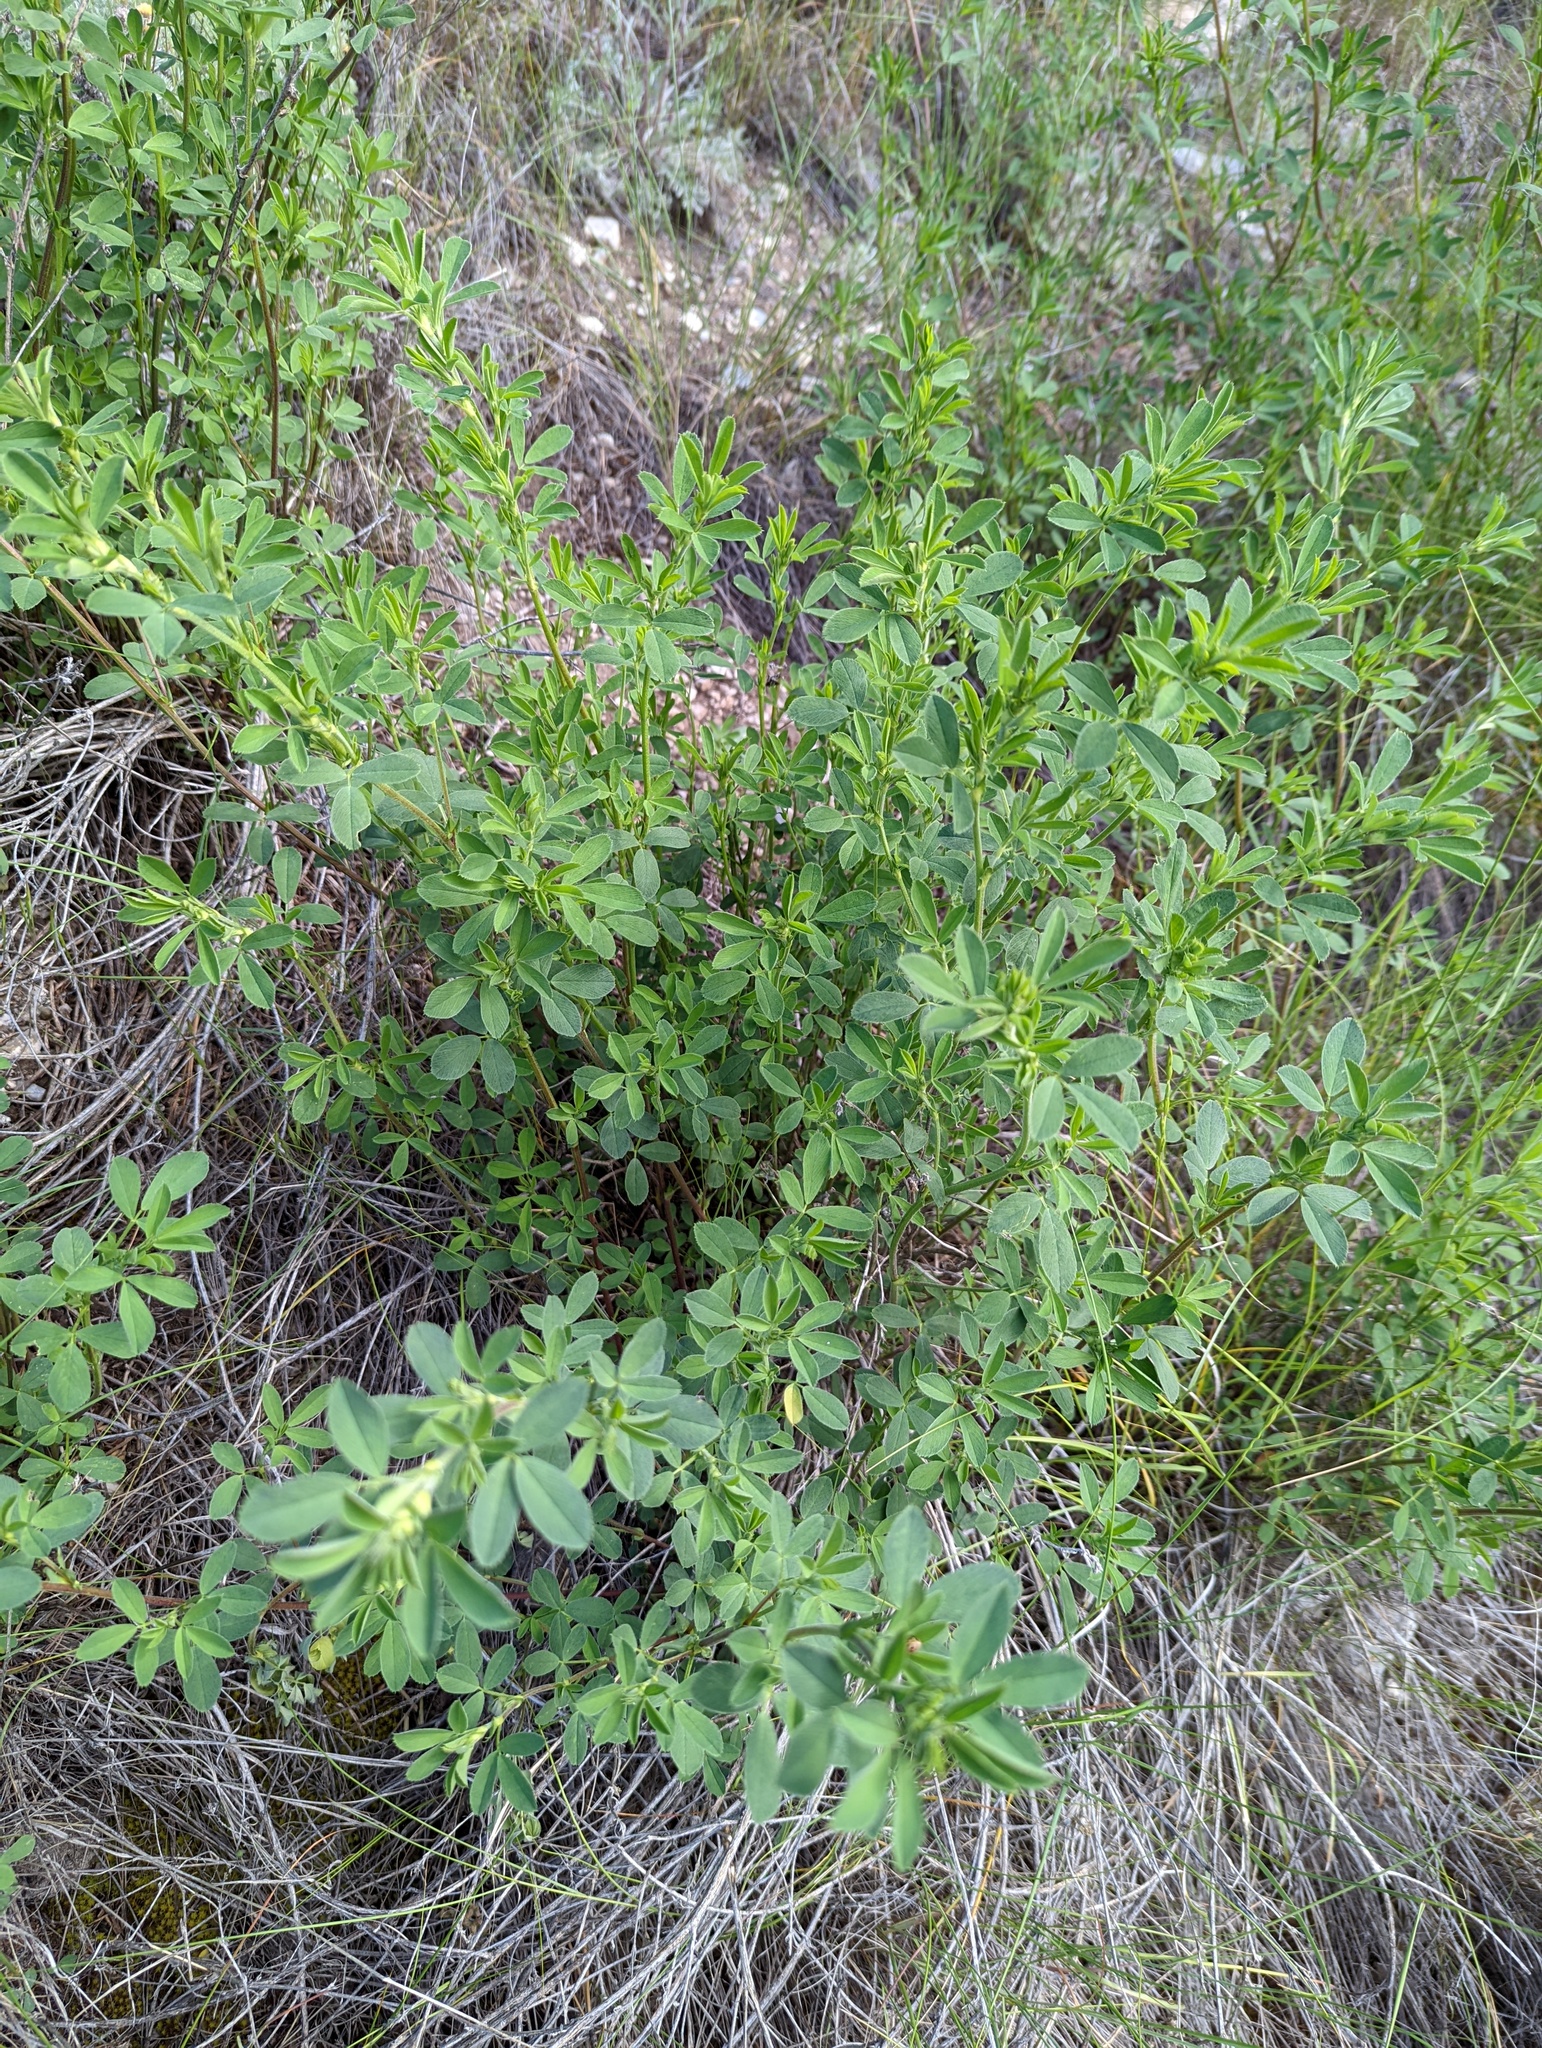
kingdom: Plantae
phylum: Tracheophyta
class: Magnoliopsida
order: Fabales
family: Fabaceae
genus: Medicago
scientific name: Medicago sativa
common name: Alfalfa
